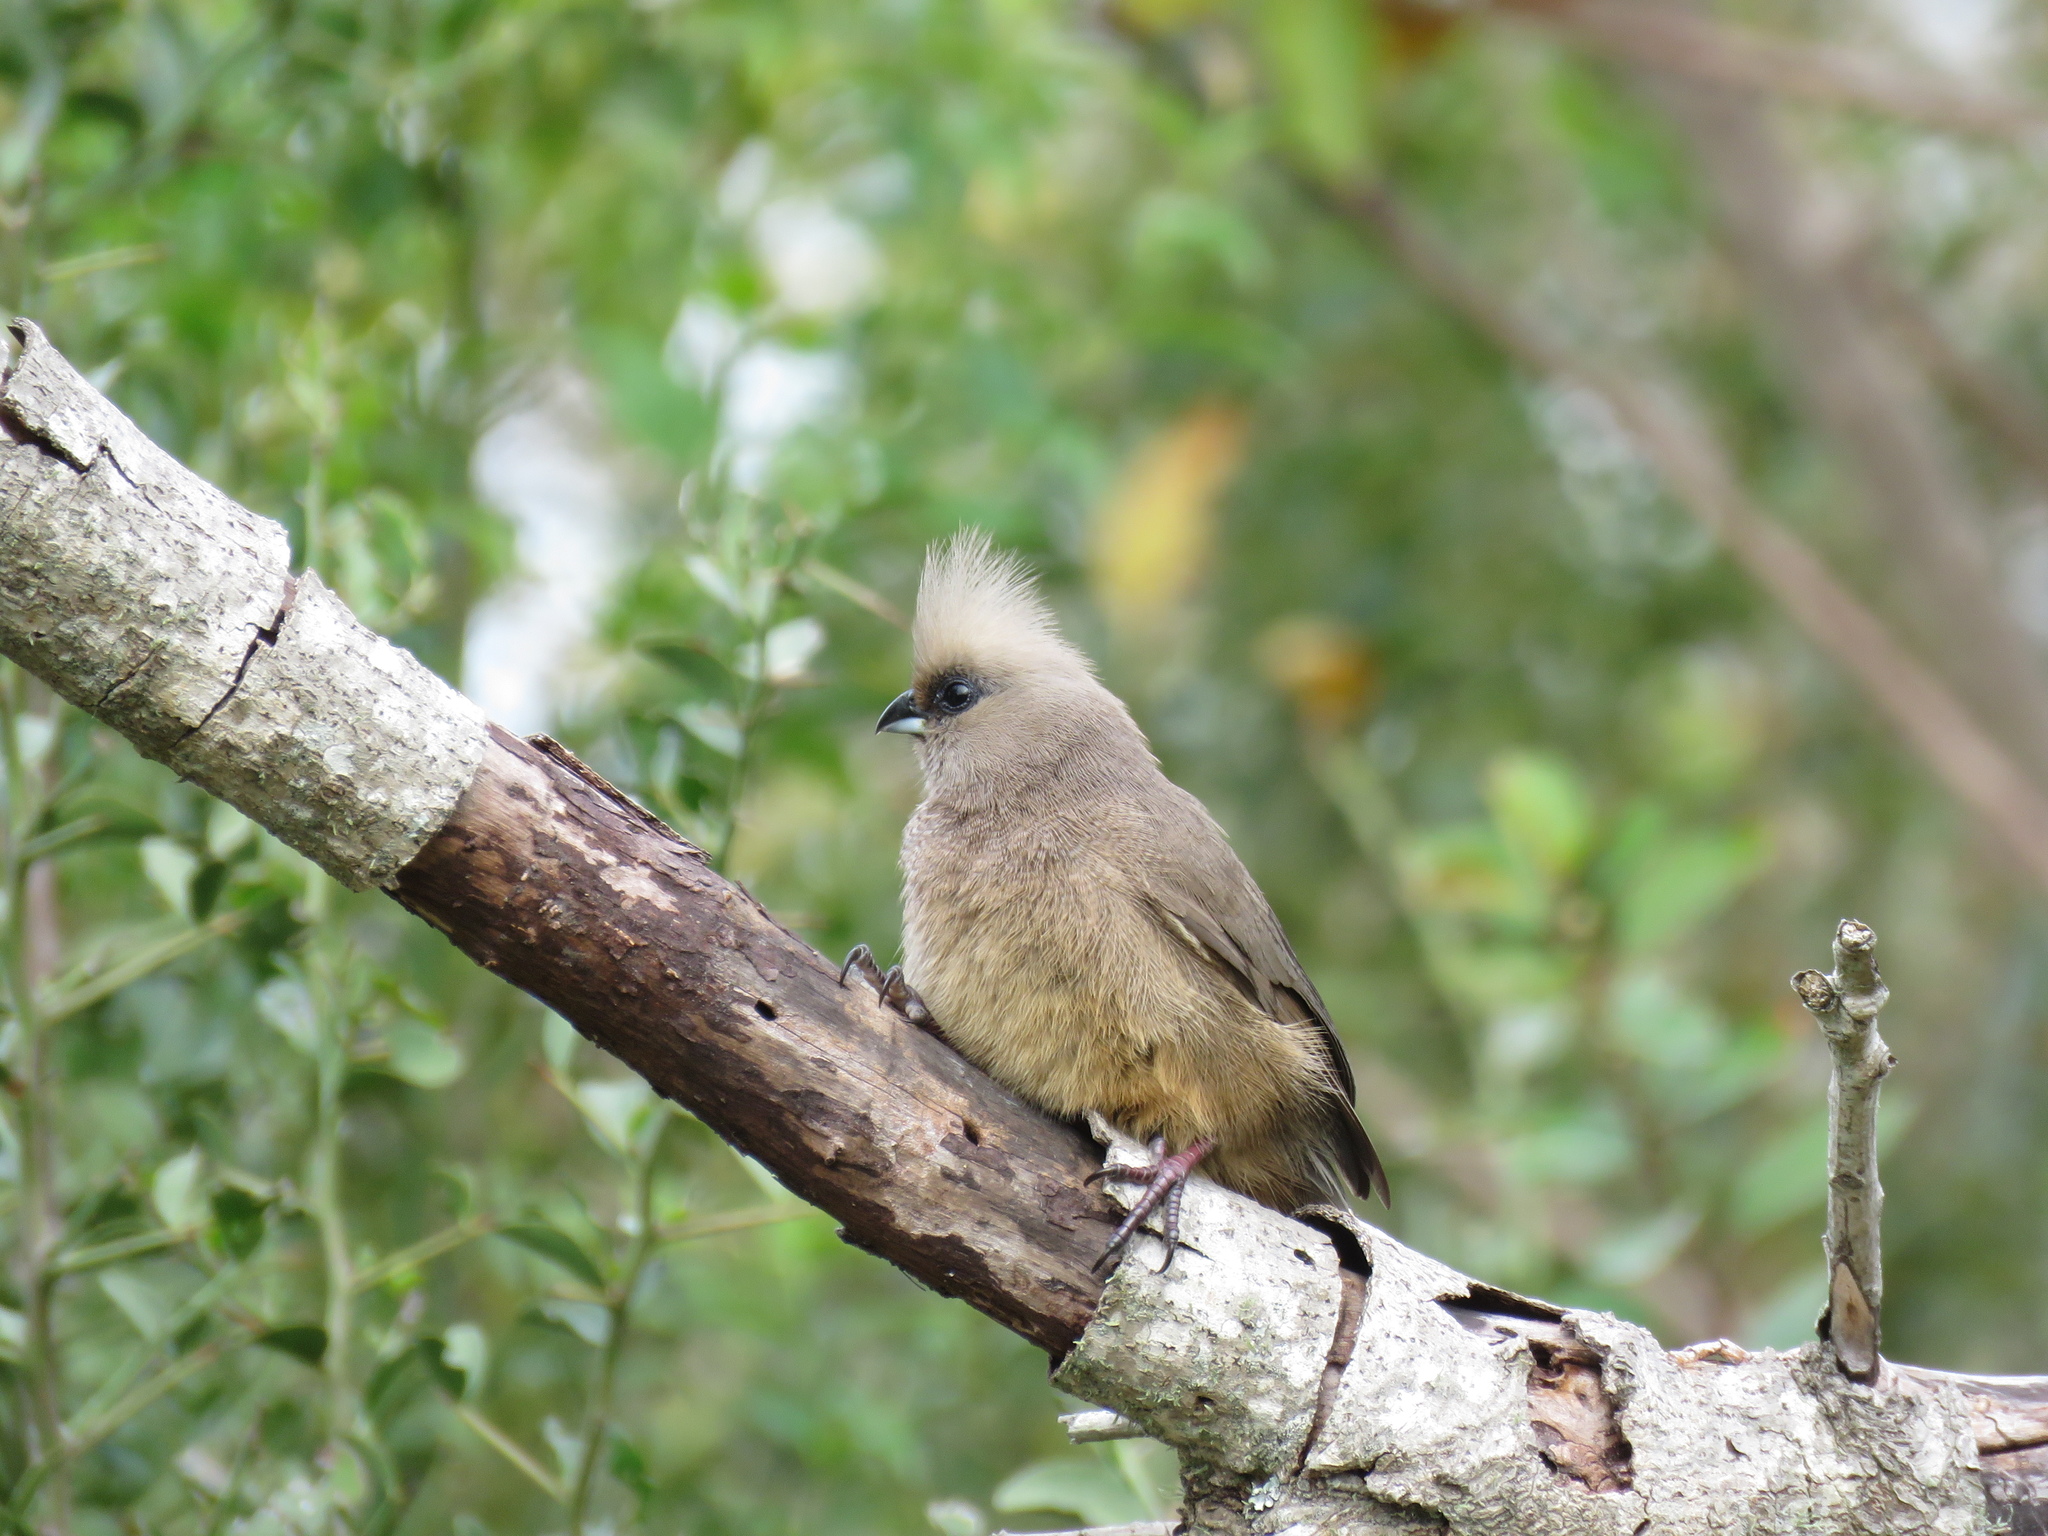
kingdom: Animalia
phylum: Chordata
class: Aves
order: Coliiformes
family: Coliidae
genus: Colius
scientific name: Colius striatus
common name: Speckled mousebird
